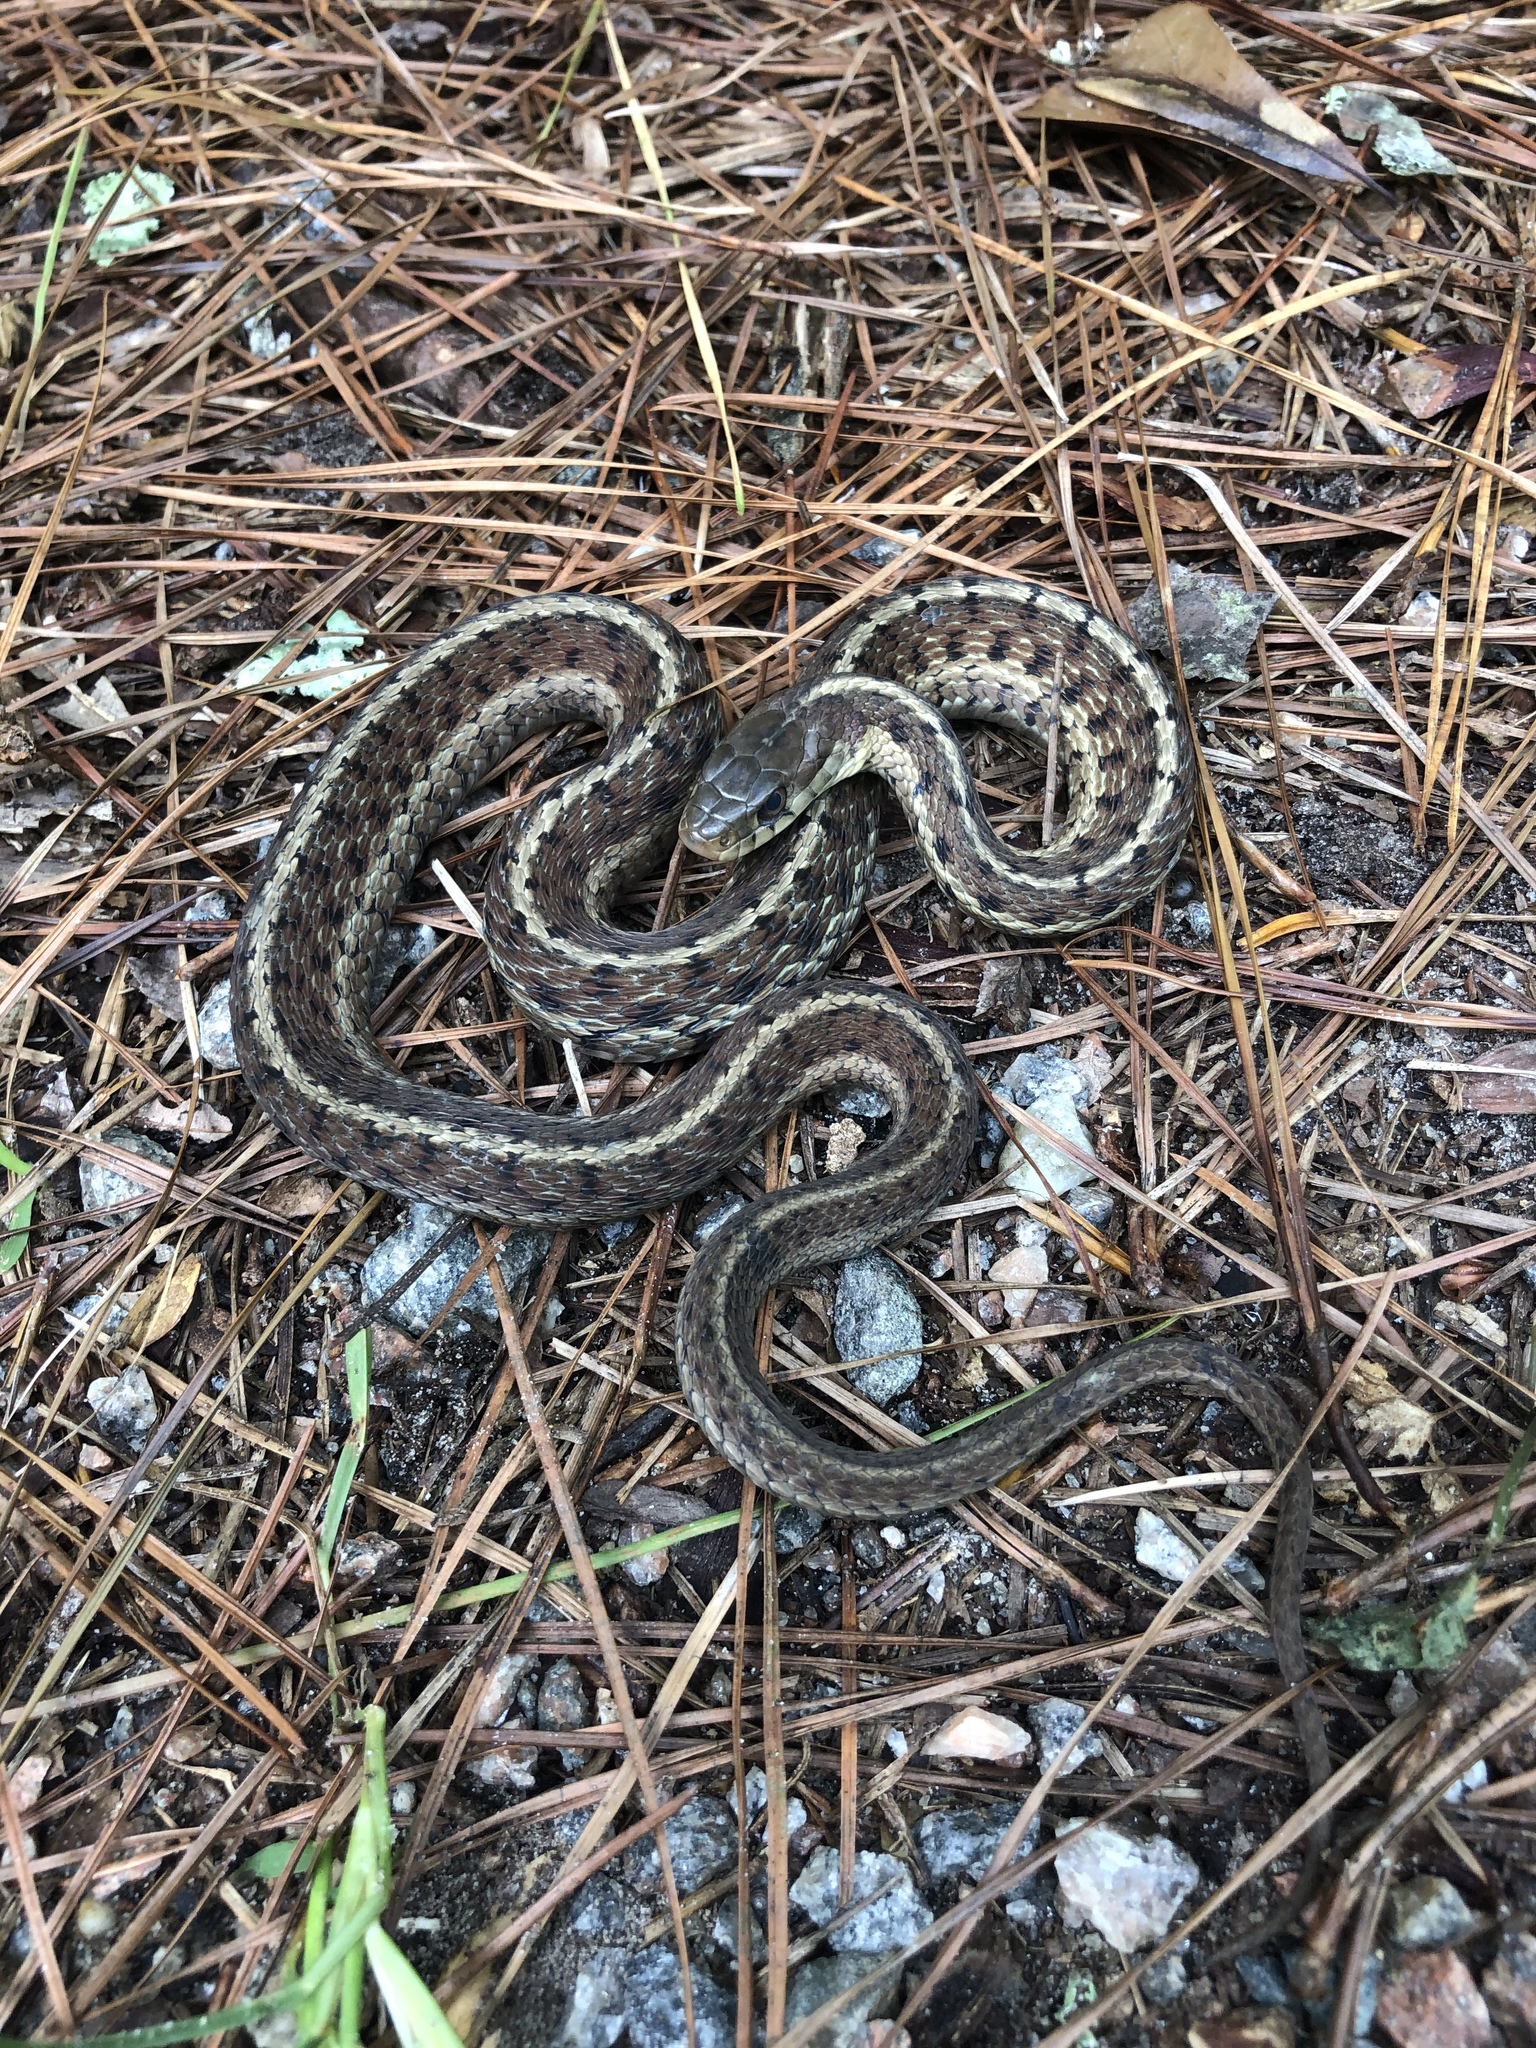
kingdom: Animalia
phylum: Chordata
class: Squamata
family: Colubridae
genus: Thamnophis
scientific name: Thamnophis sirtalis
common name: Common garter snake
